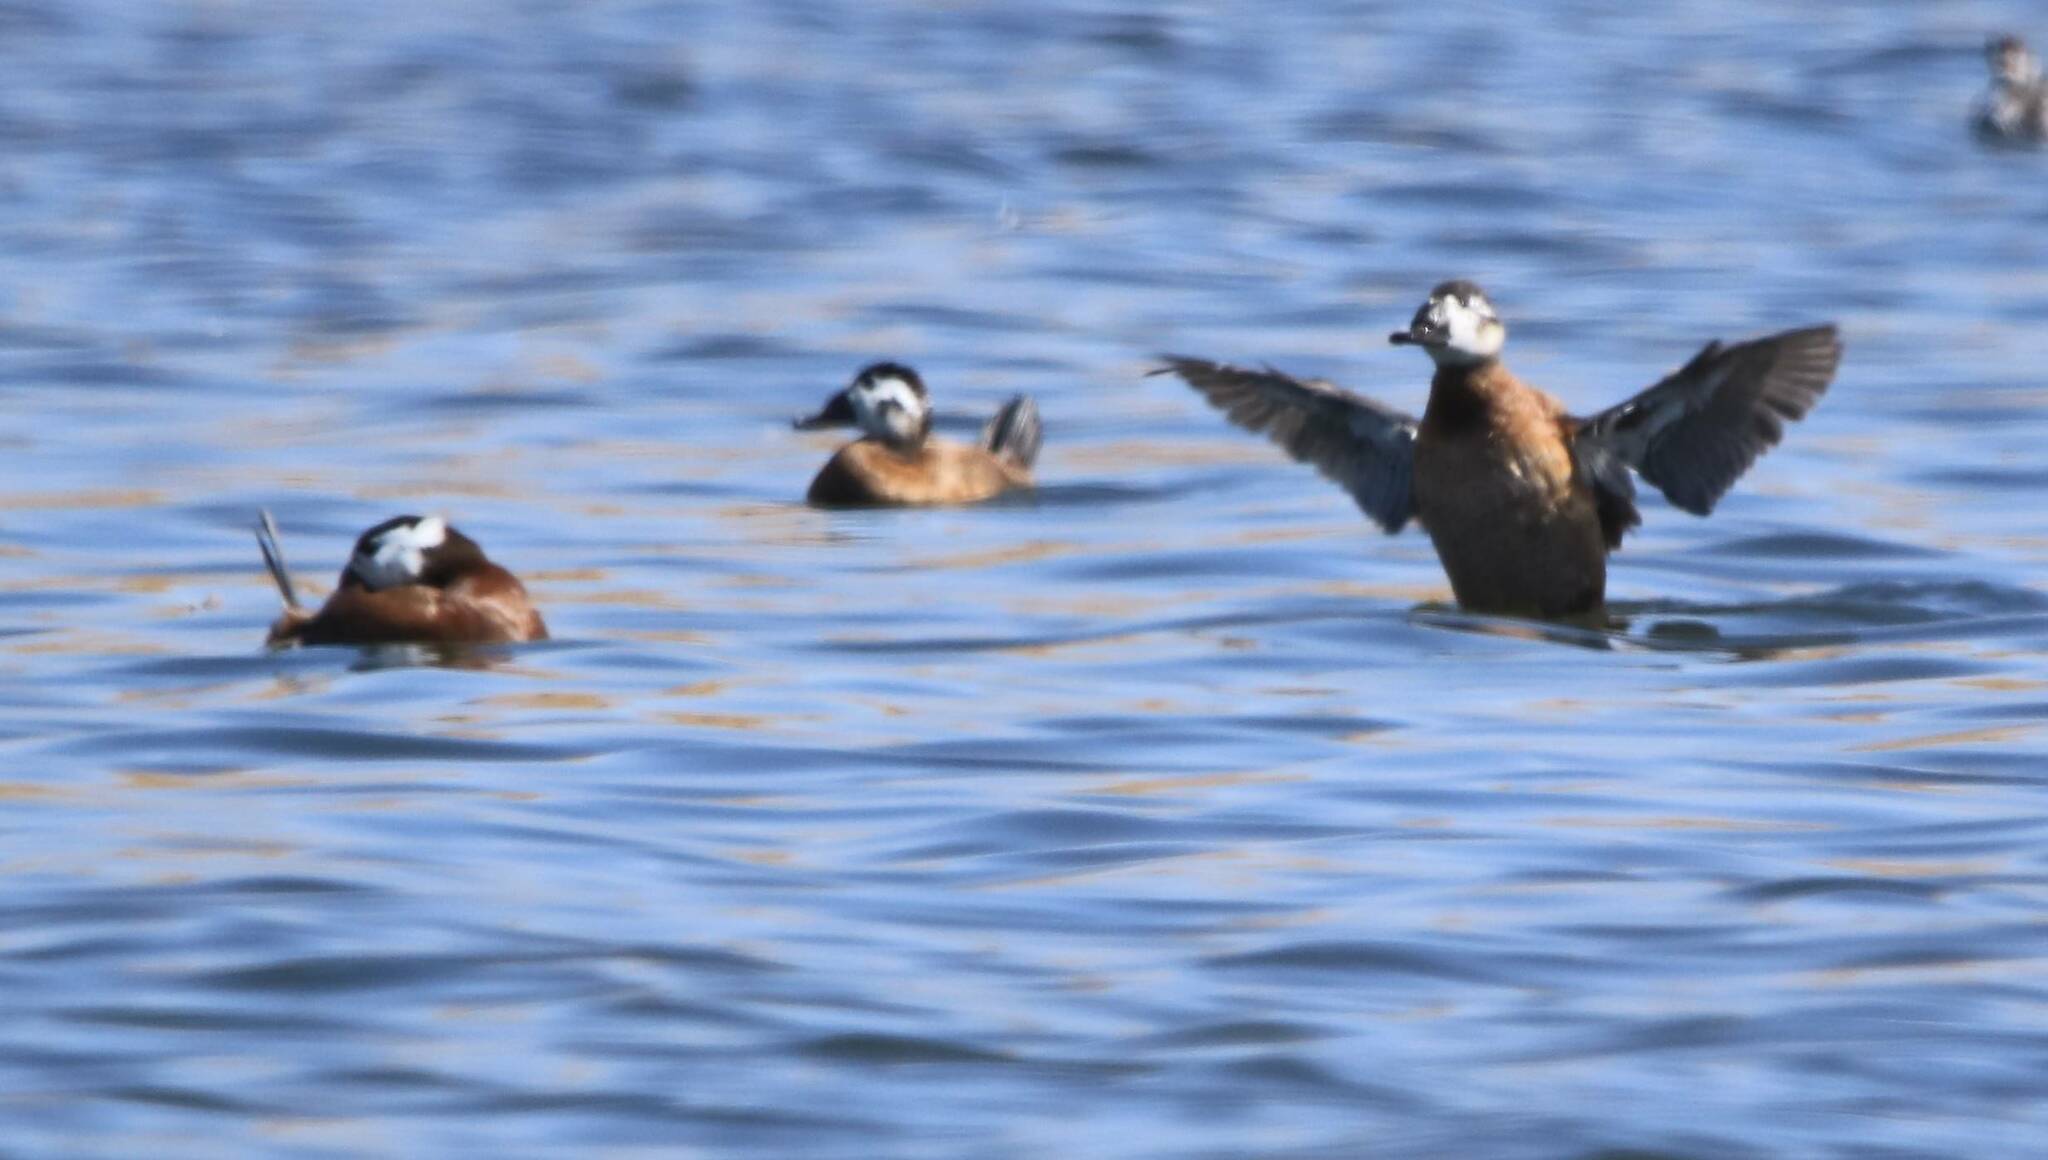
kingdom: Animalia
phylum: Chordata
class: Aves
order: Anseriformes
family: Anatidae
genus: Oxyura
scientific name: Oxyura leucocephala
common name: White-headed duck
